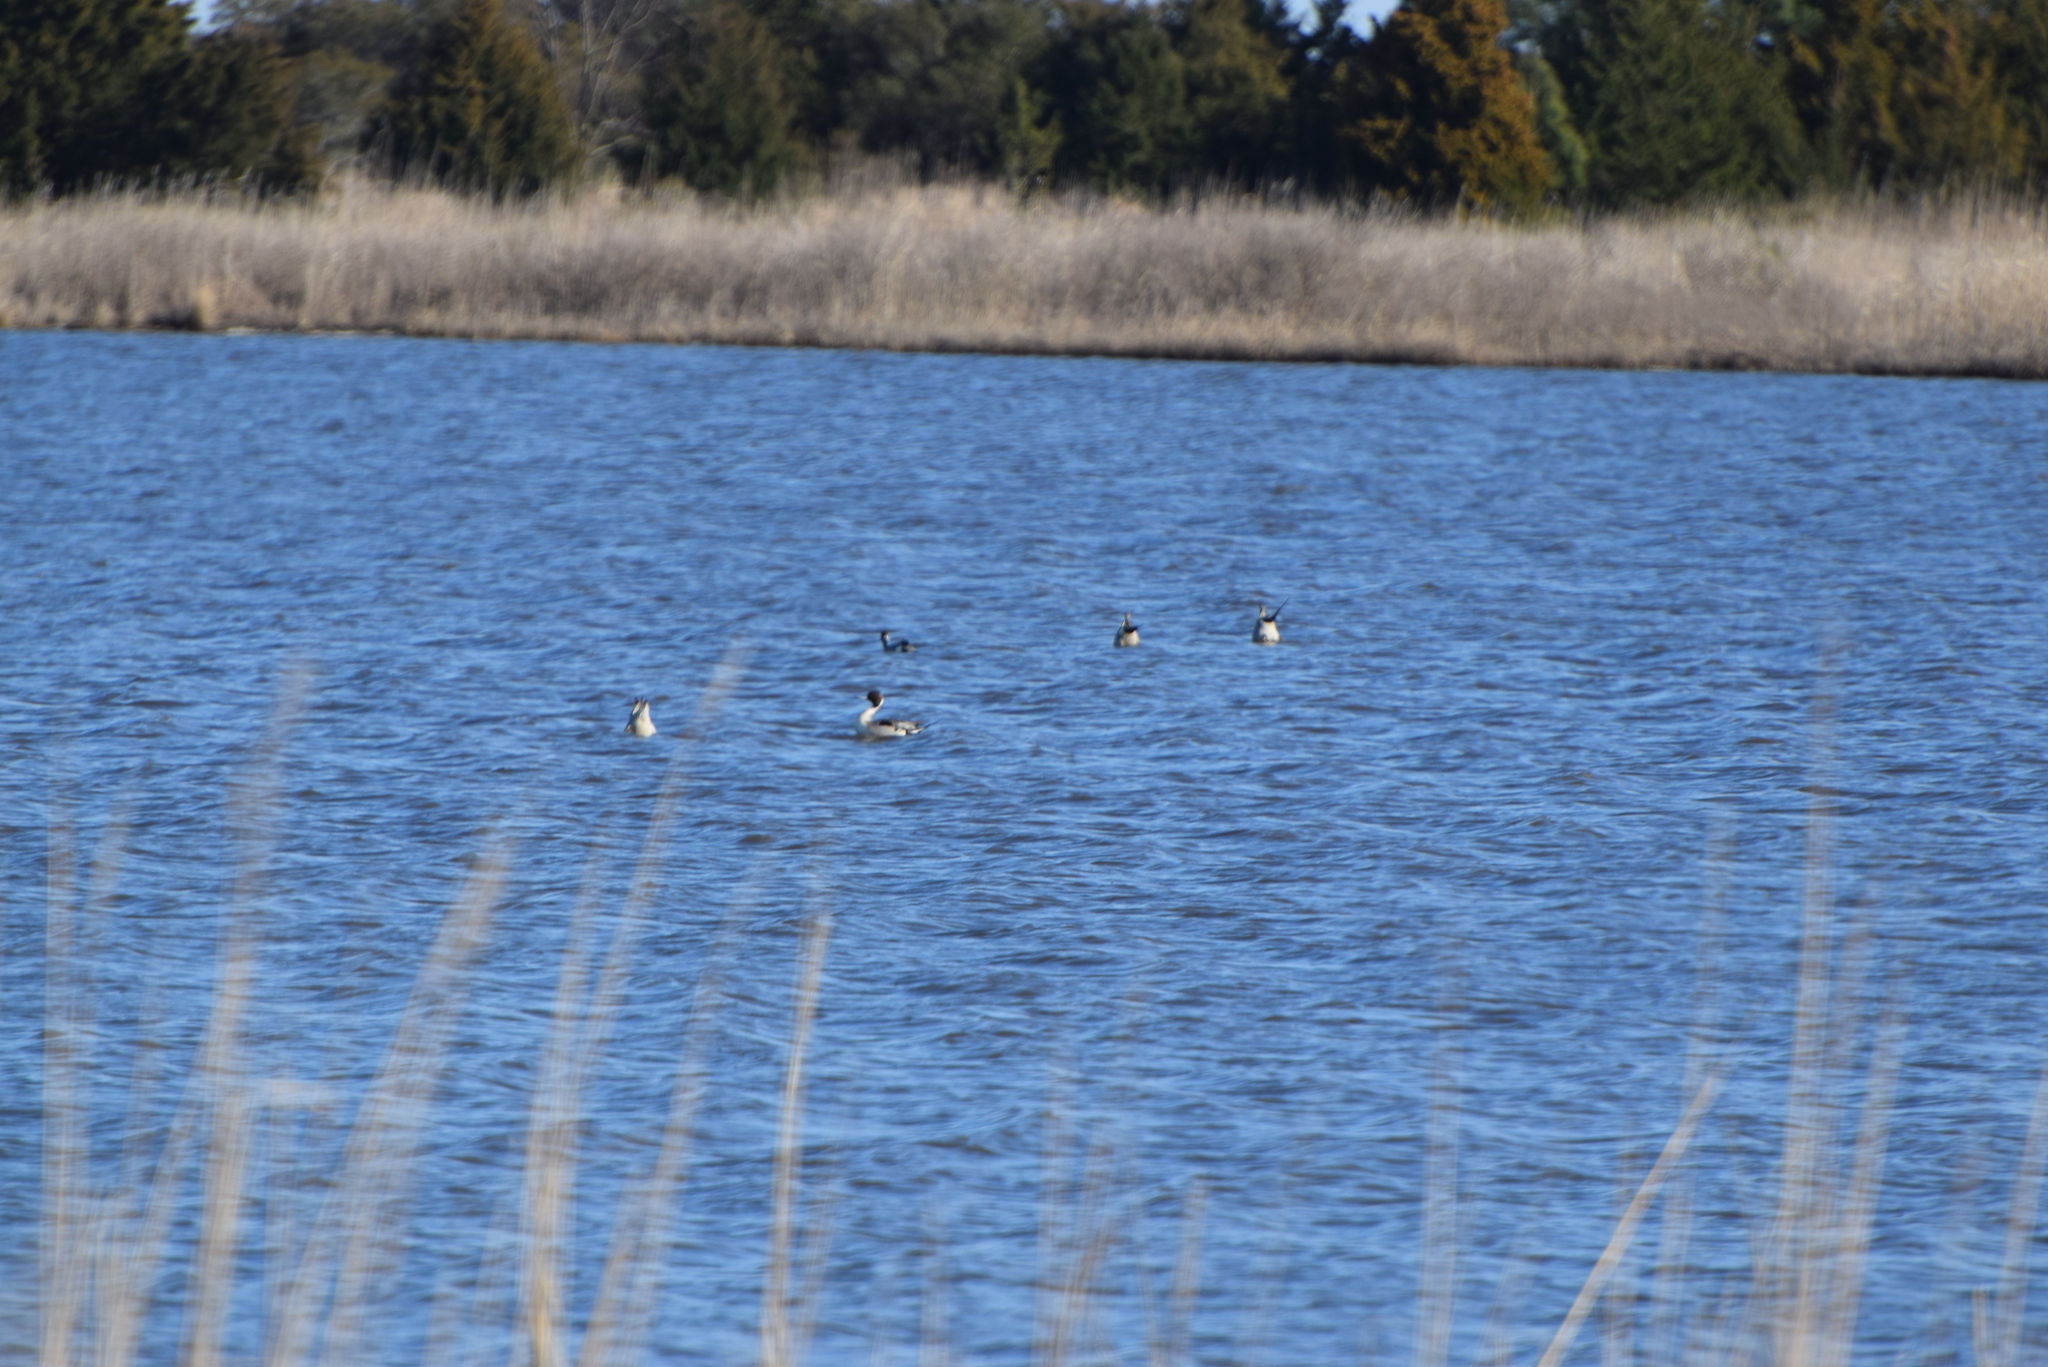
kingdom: Animalia
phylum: Chordata
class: Aves
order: Anseriformes
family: Anatidae
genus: Anas
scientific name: Anas acuta
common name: Northern pintail
